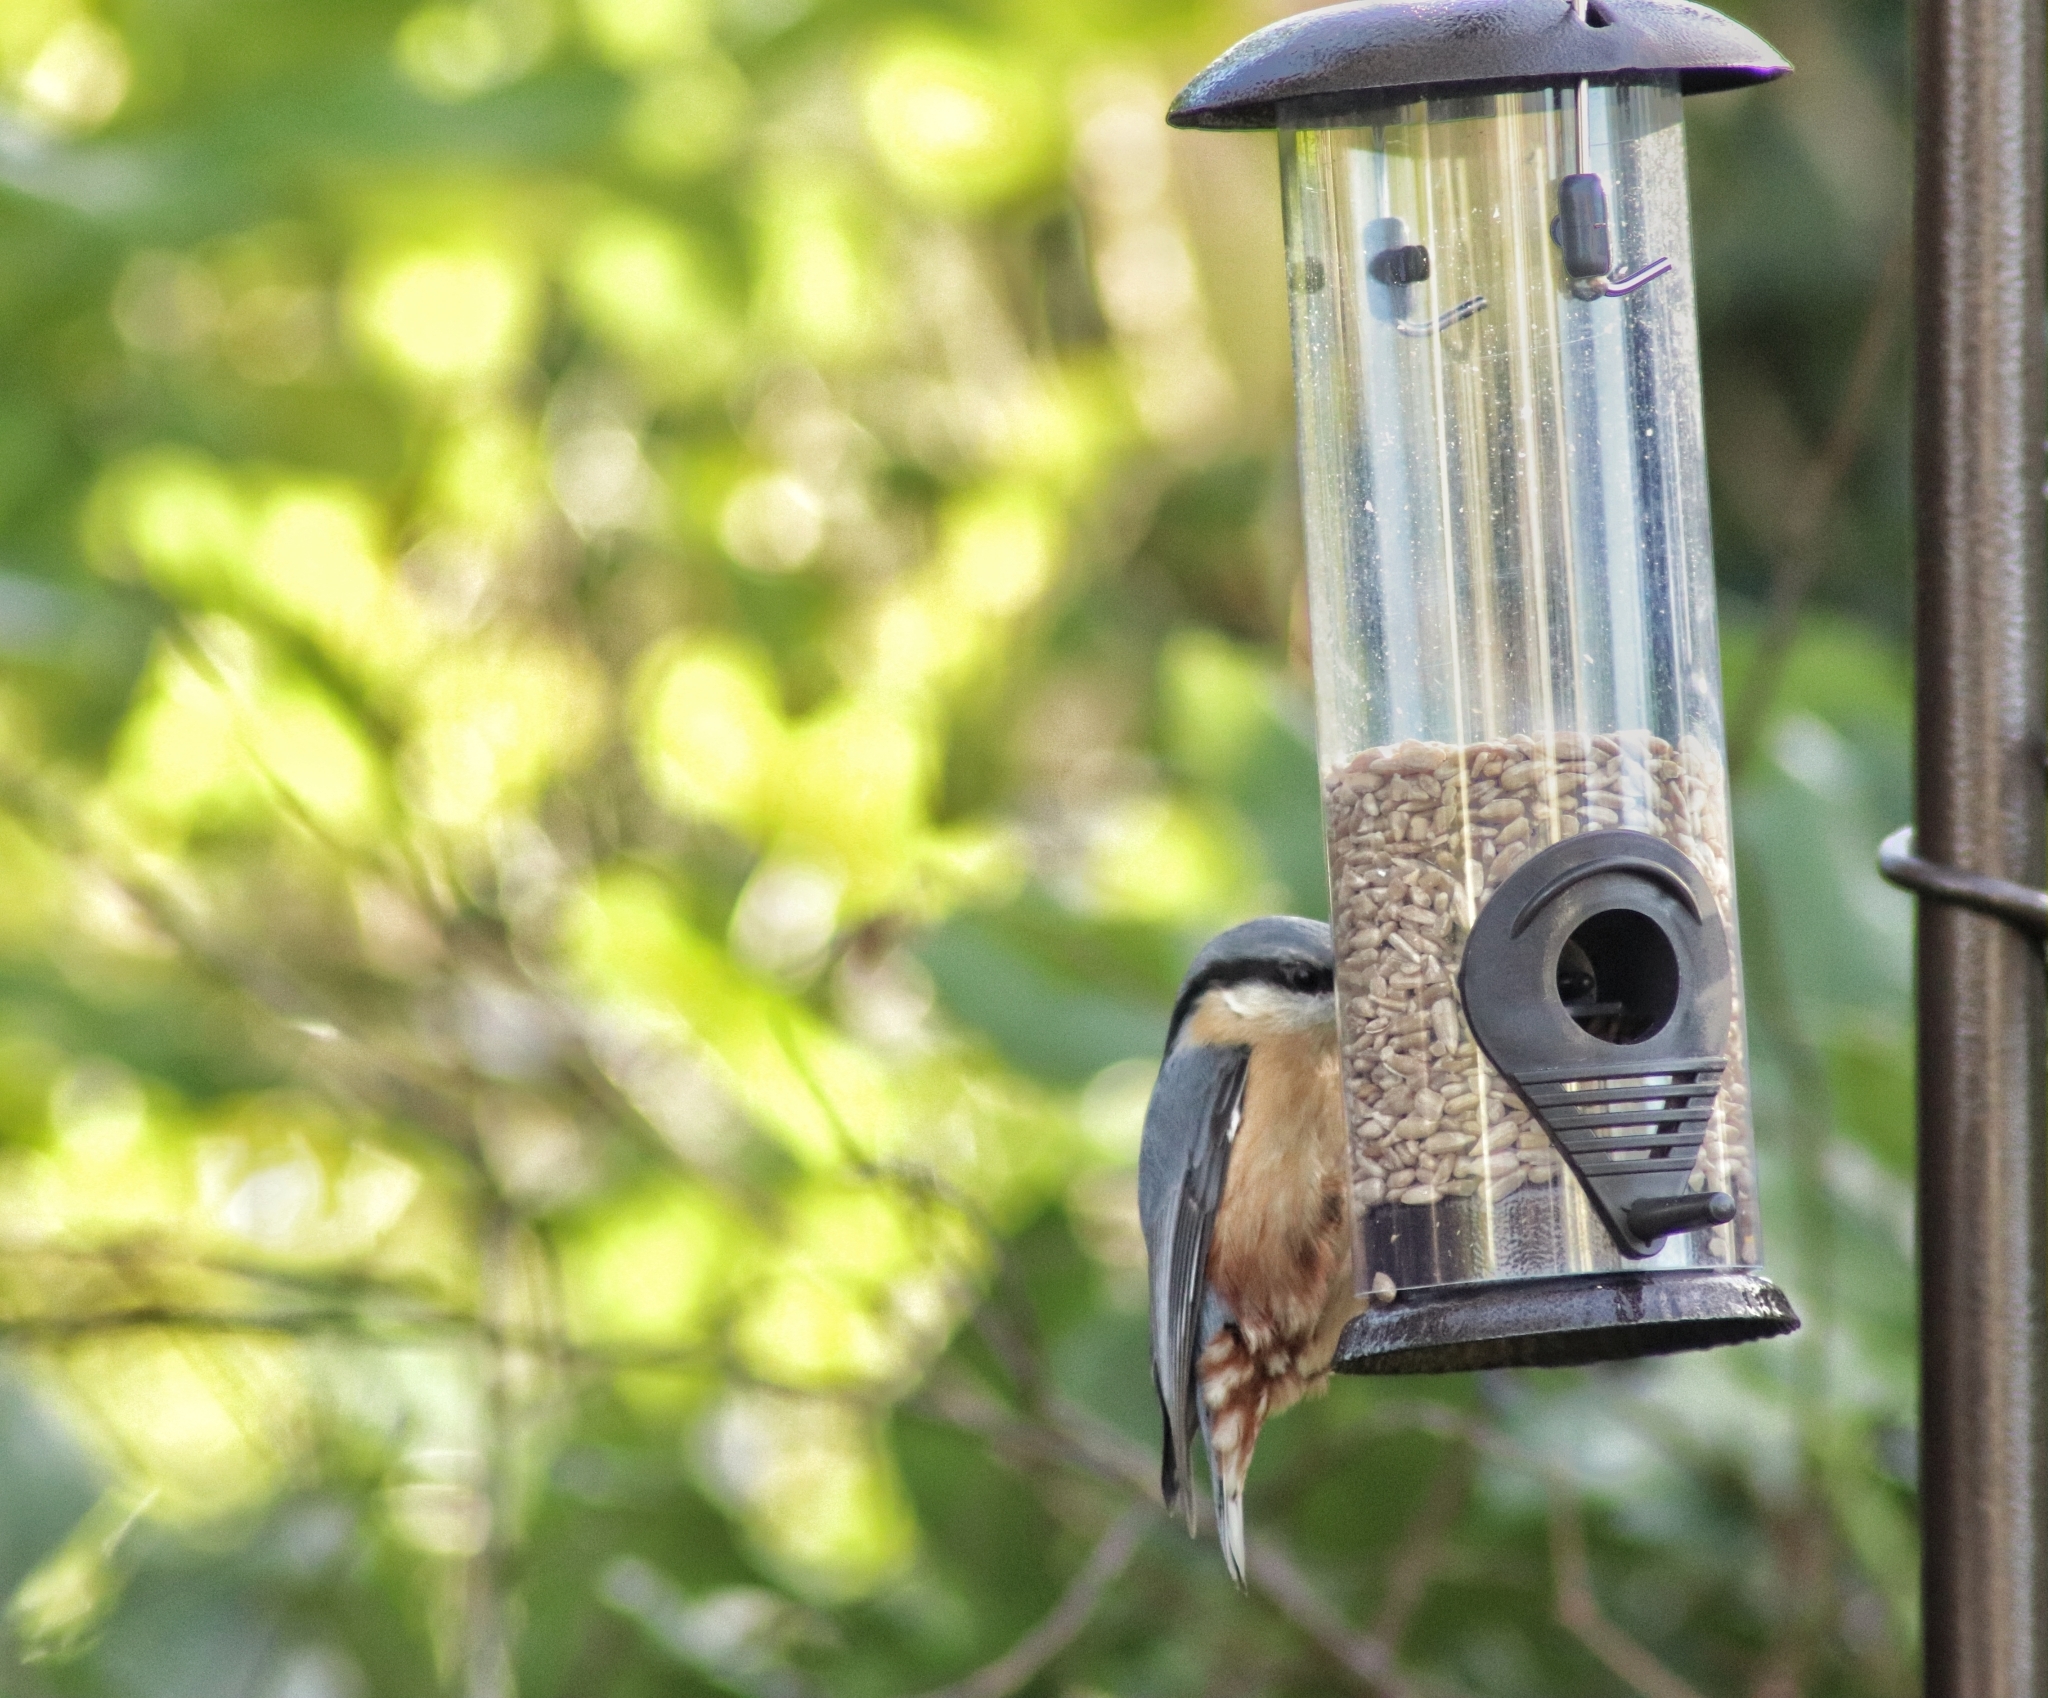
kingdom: Animalia
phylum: Chordata
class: Aves
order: Passeriformes
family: Sittidae
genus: Sitta
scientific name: Sitta europaea
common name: Eurasian nuthatch
